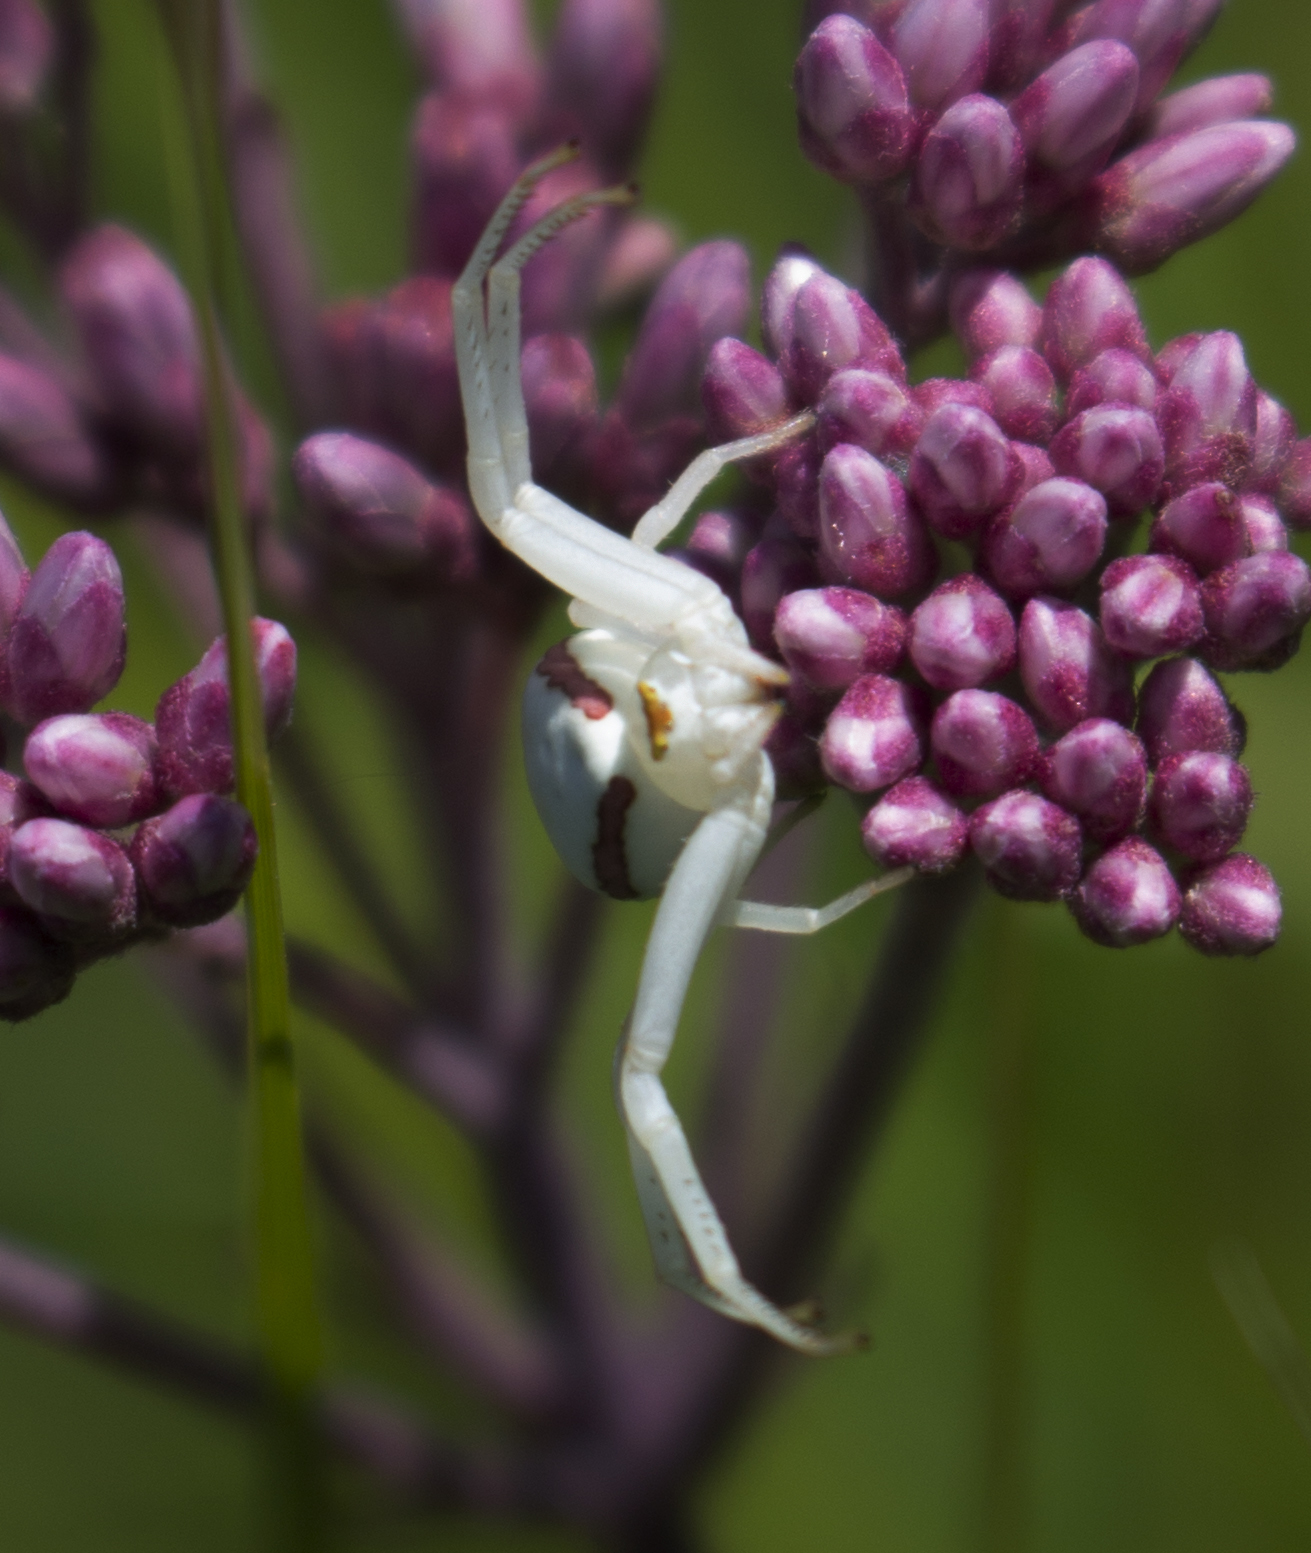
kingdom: Animalia
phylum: Arthropoda
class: Arachnida
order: Araneae
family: Thomisidae
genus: Misumena
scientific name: Misumena vatia
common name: Goldenrod crab spider
